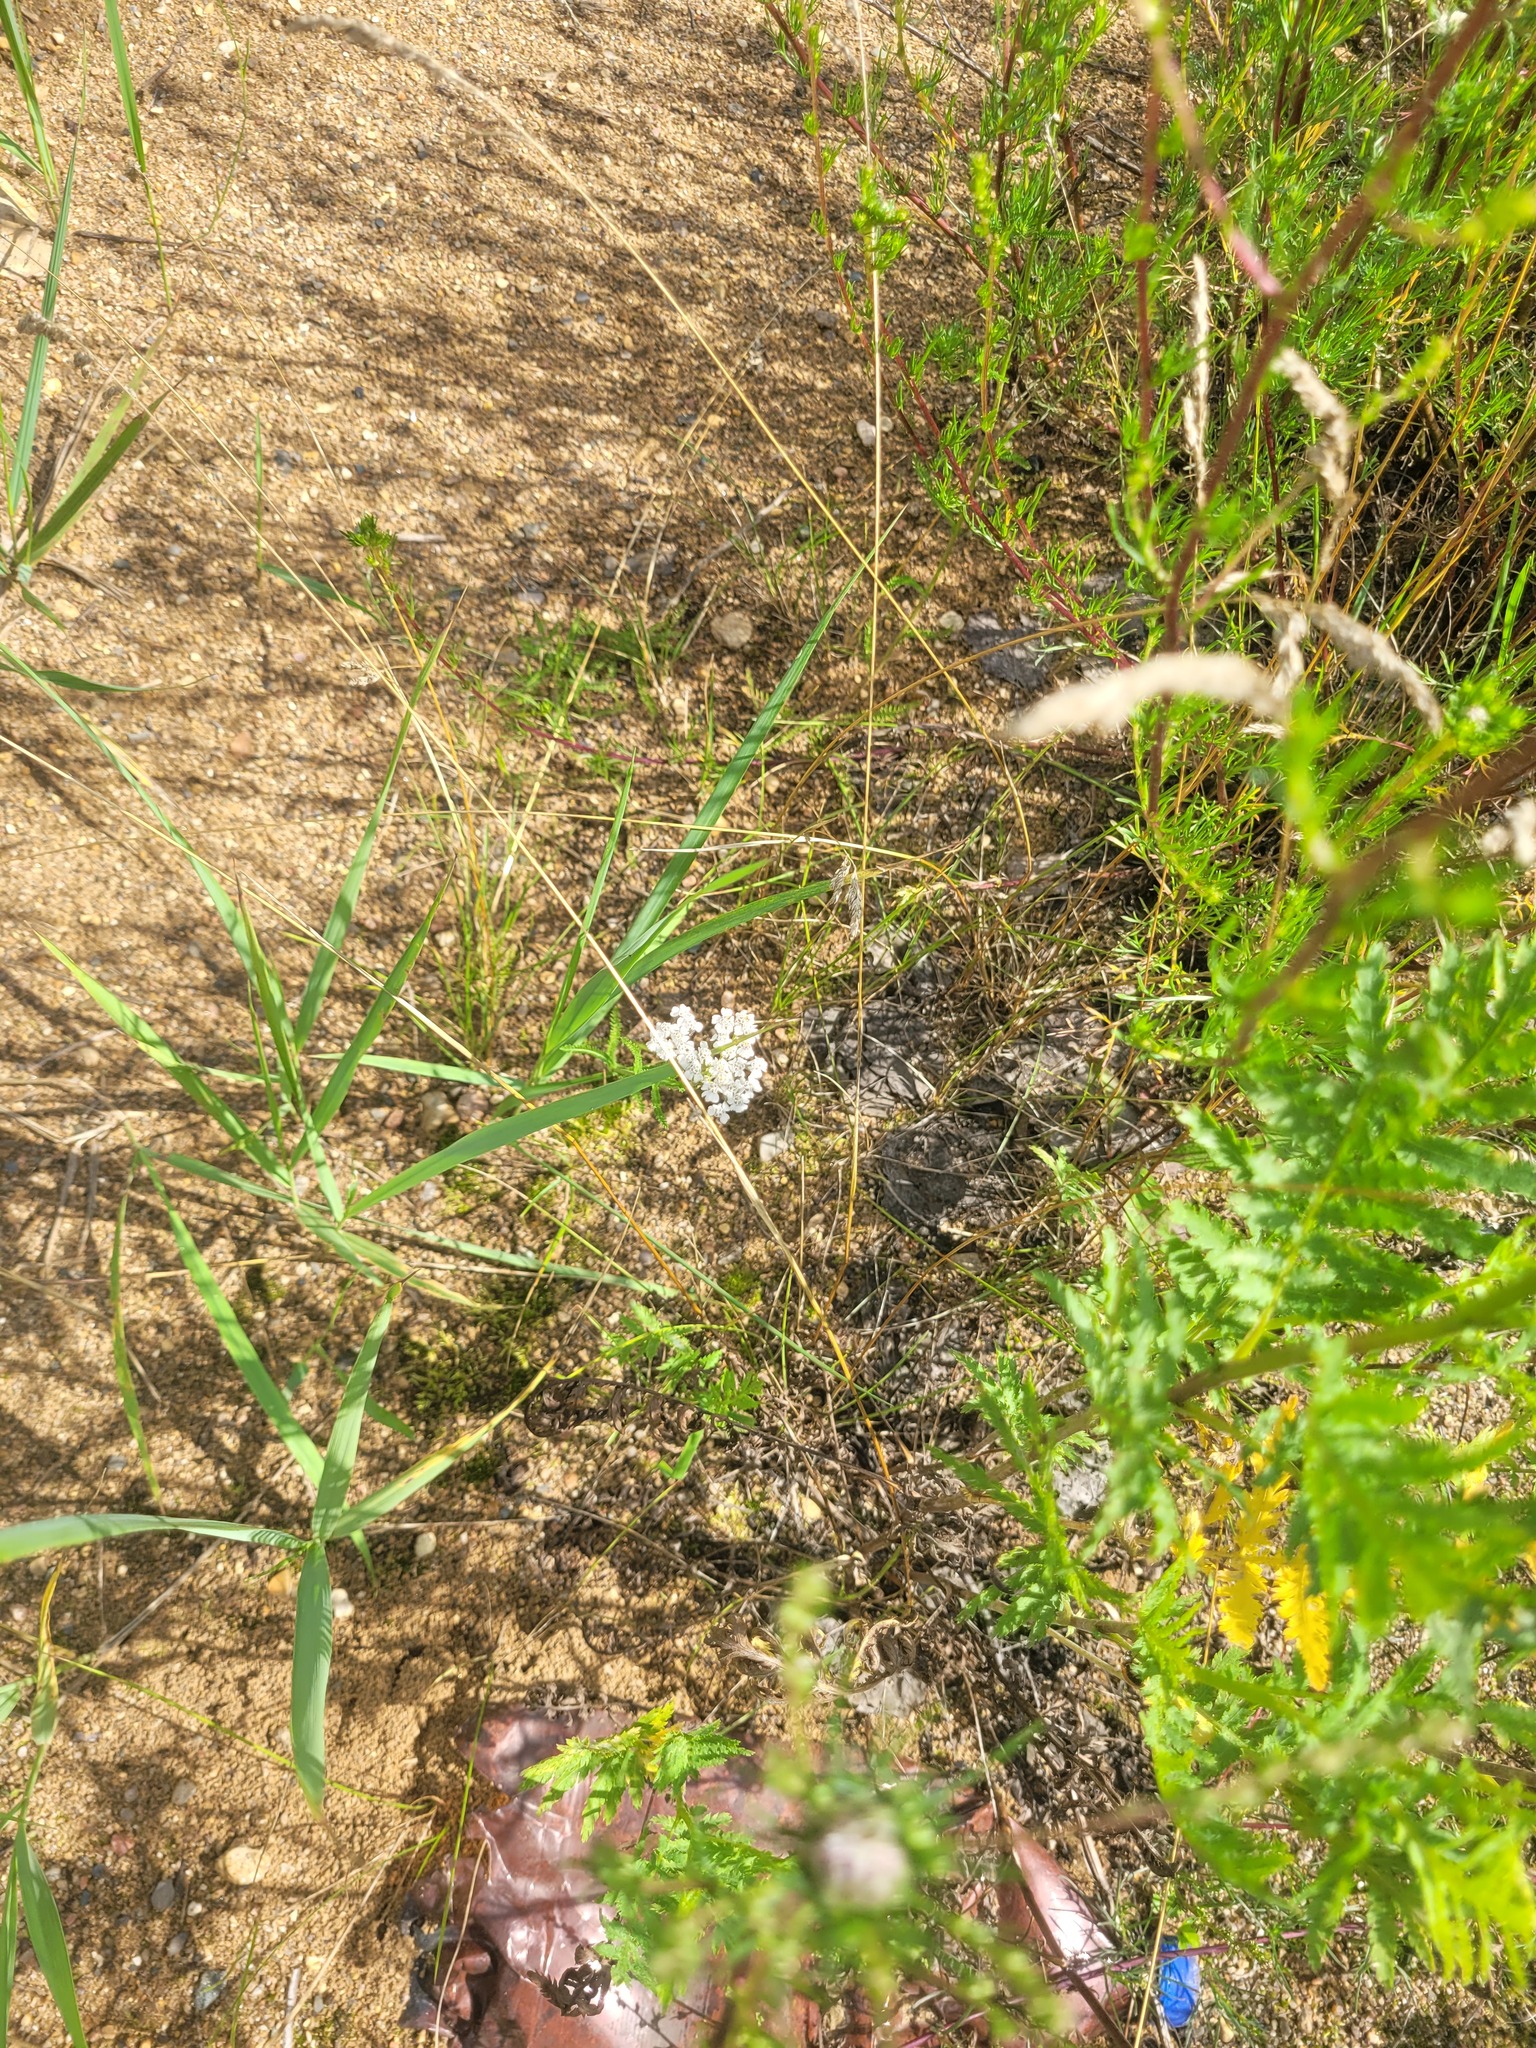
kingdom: Plantae
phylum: Tracheophyta
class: Magnoliopsida
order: Asterales
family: Asteraceae
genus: Achillea
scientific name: Achillea millefolium
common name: Yarrow
